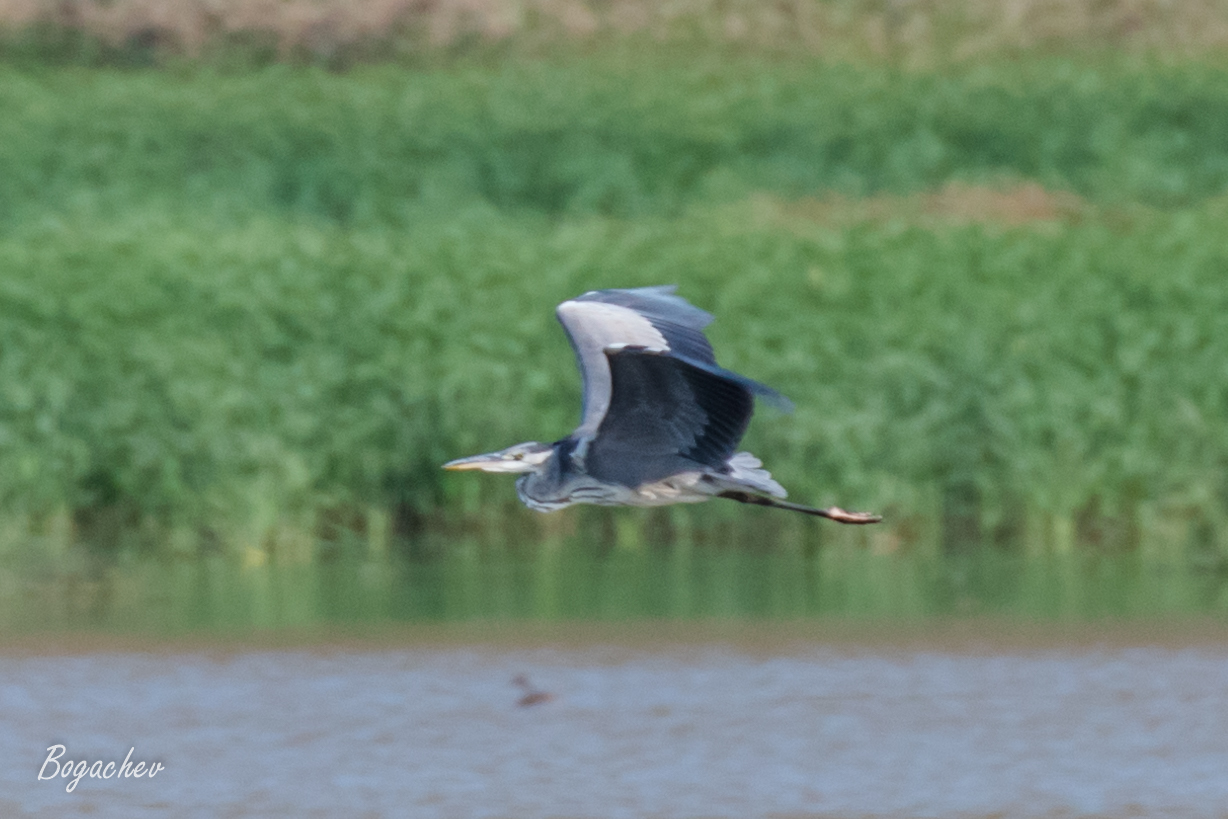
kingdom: Animalia
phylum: Chordata
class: Aves
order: Pelecaniformes
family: Ardeidae
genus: Ardea
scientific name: Ardea cinerea
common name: Grey heron
